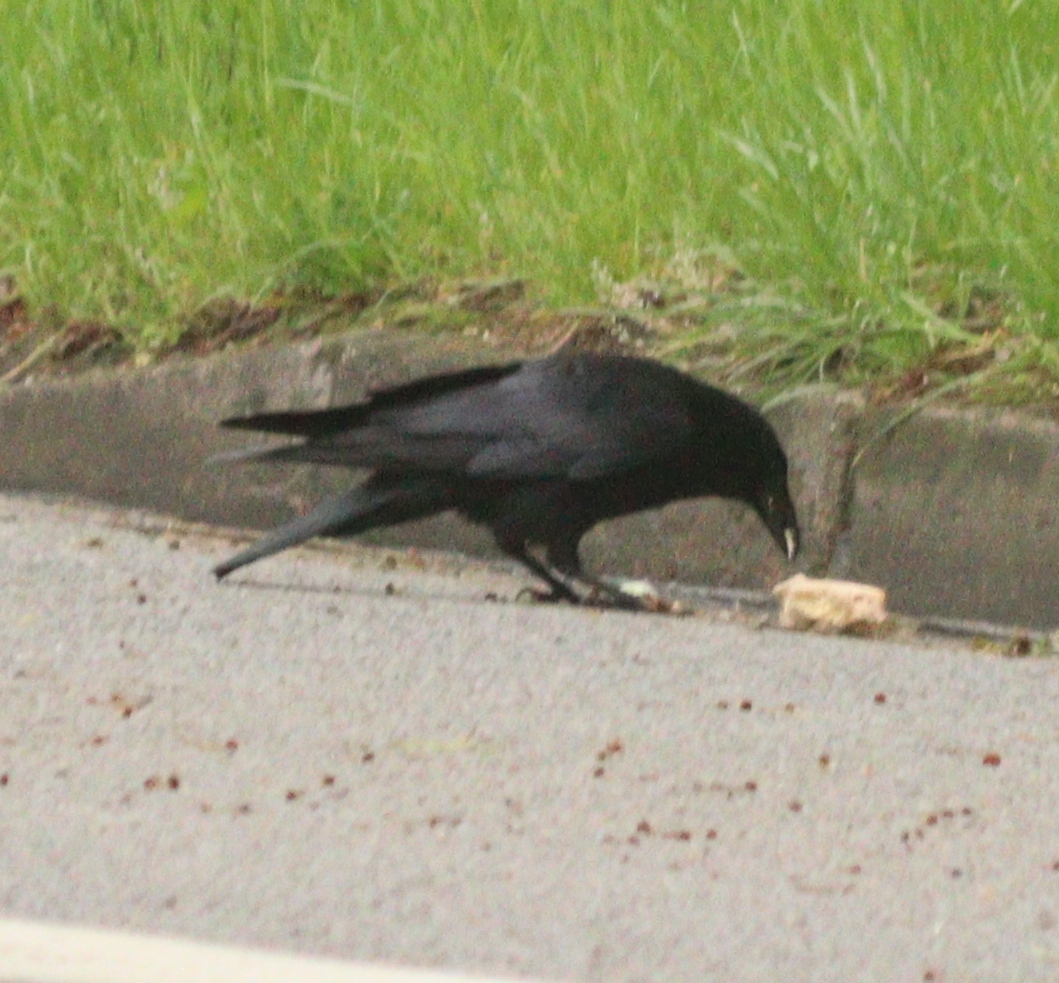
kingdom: Animalia
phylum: Chordata
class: Aves
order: Passeriformes
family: Corvidae
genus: Corvus
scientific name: Corvus corone
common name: Carrion crow
